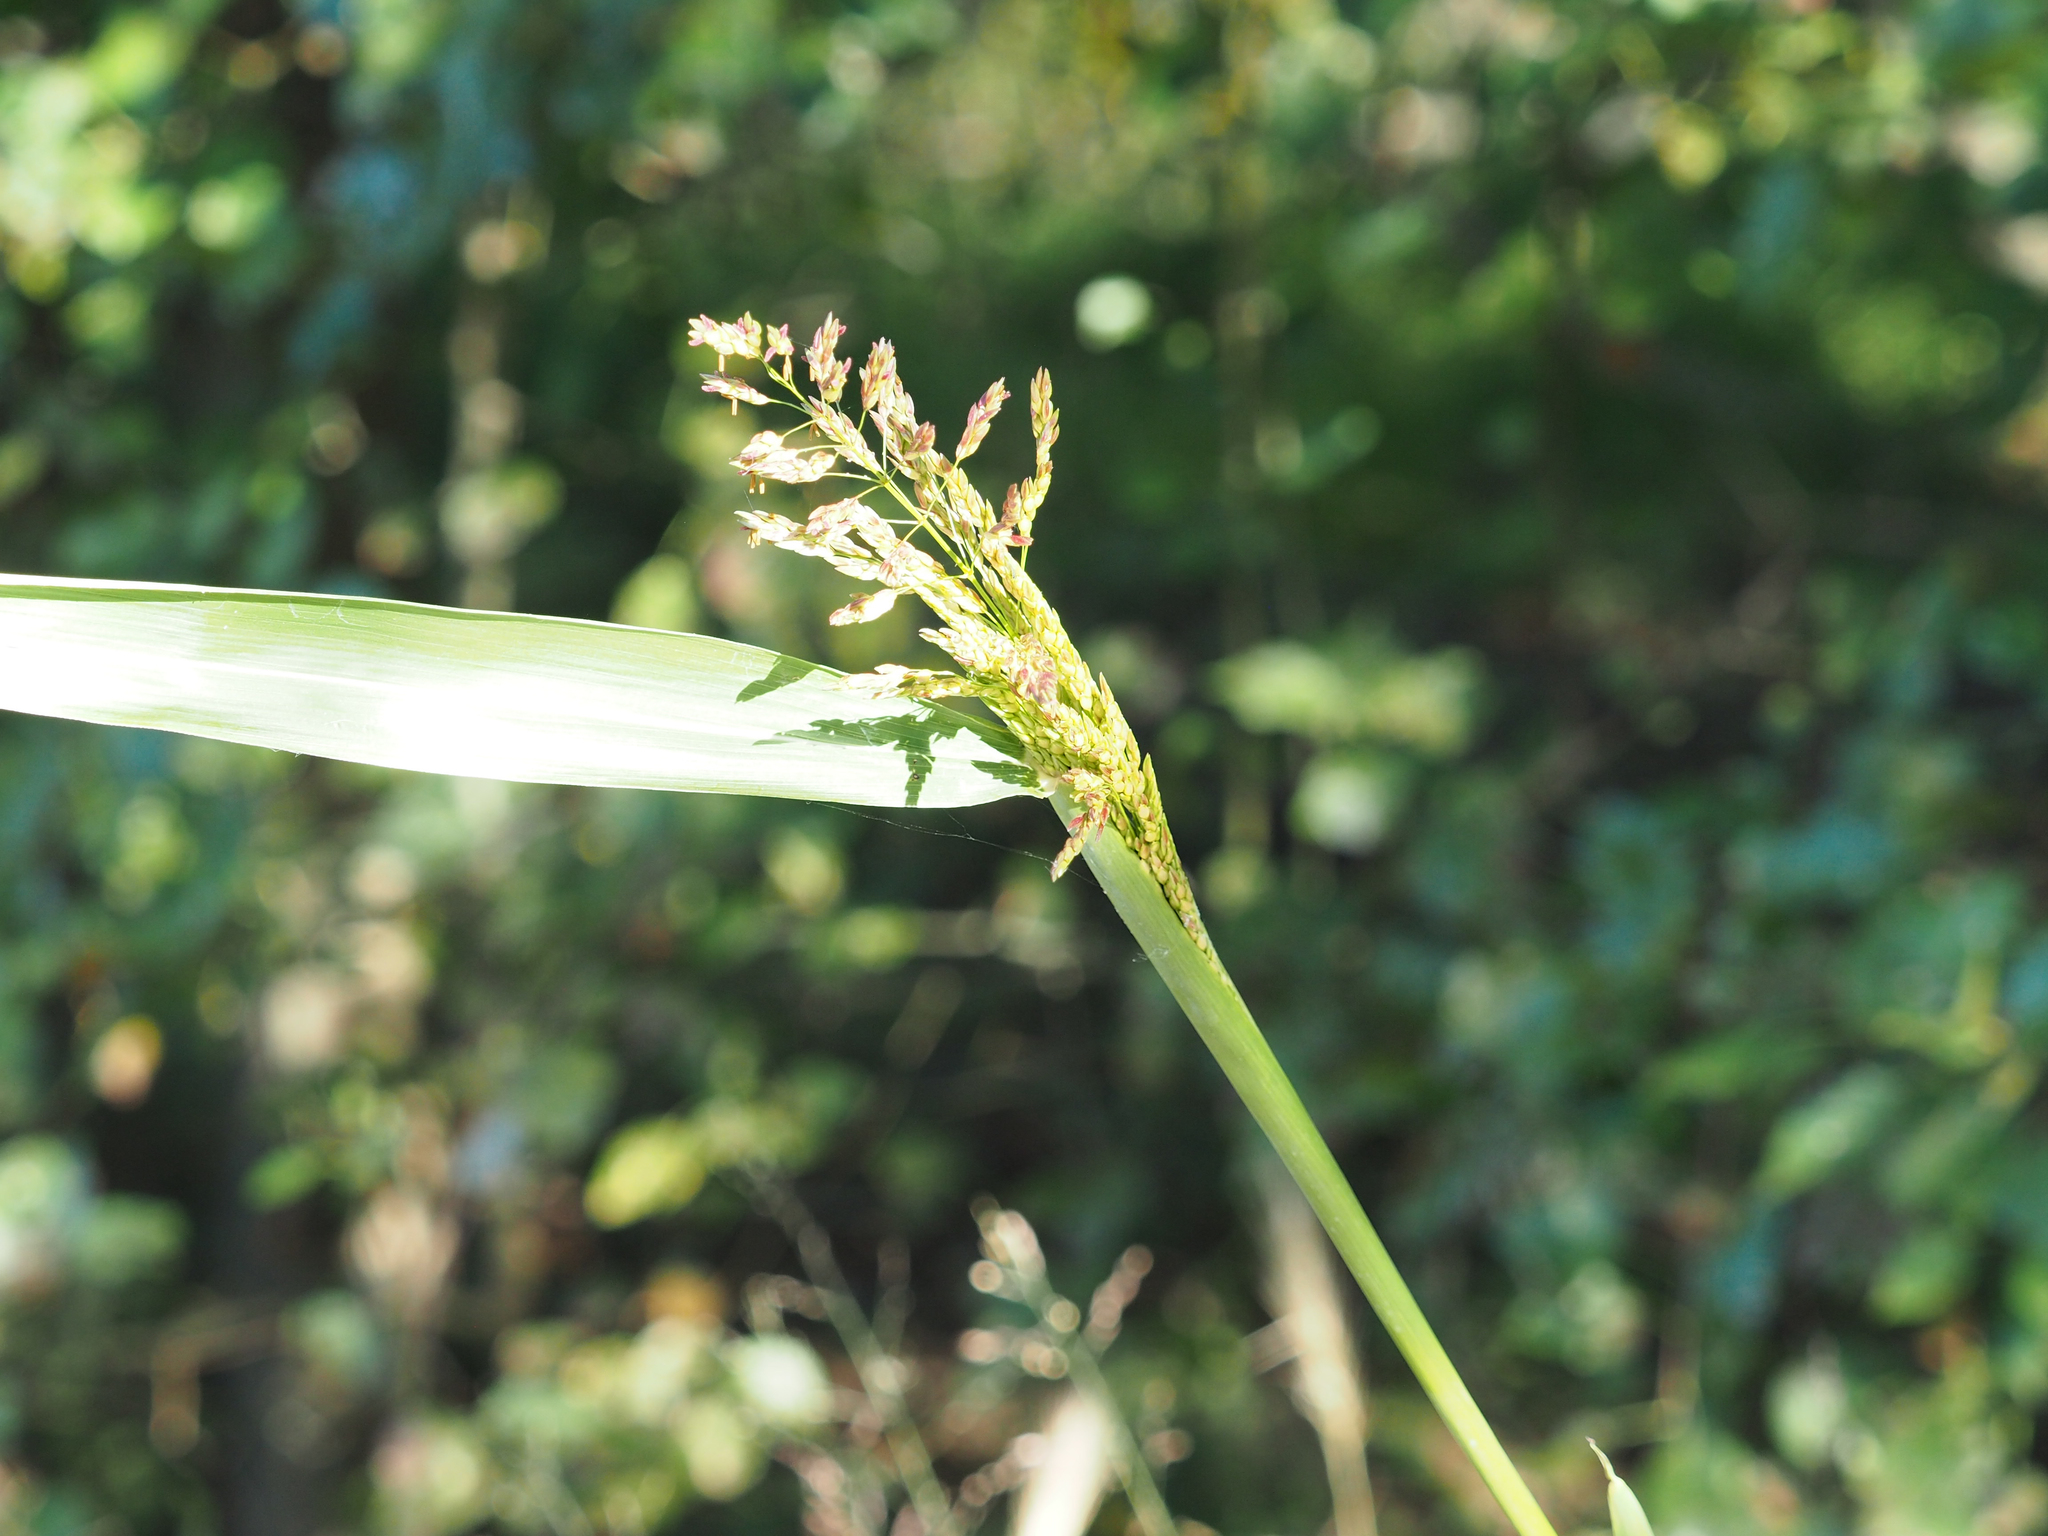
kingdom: Plantae
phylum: Tracheophyta
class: Liliopsida
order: Poales
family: Poaceae
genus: Sorghum
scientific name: Sorghum halepense
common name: Johnson-grass
